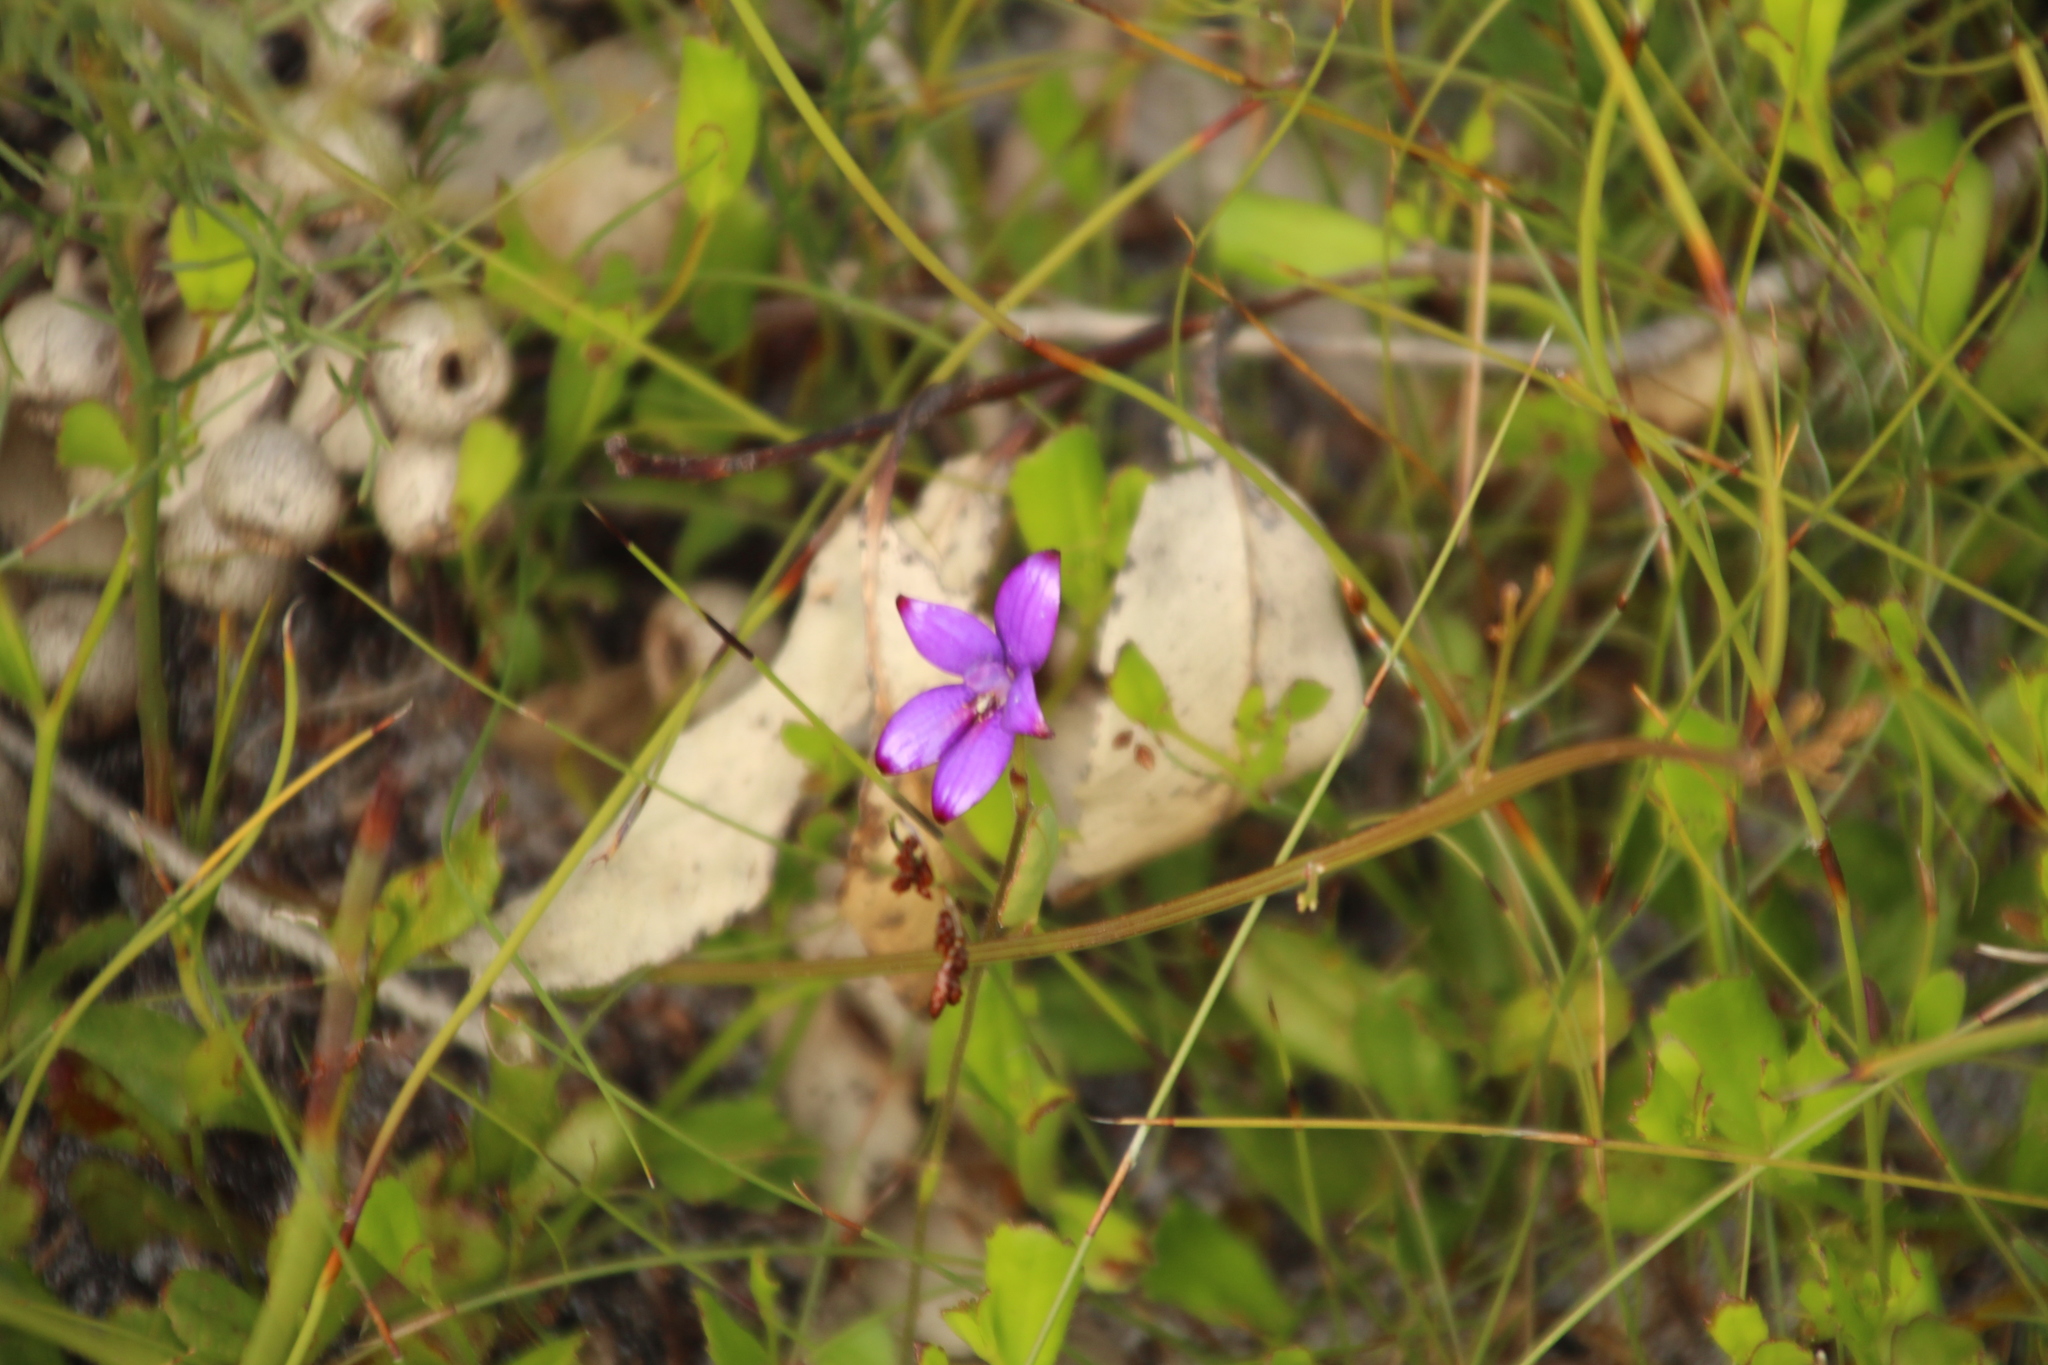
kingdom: Plantae
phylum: Tracheophyta
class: Liliopsida
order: Asparagales
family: Orchidaceae
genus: Caladenia
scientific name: Caladenia brunonis
